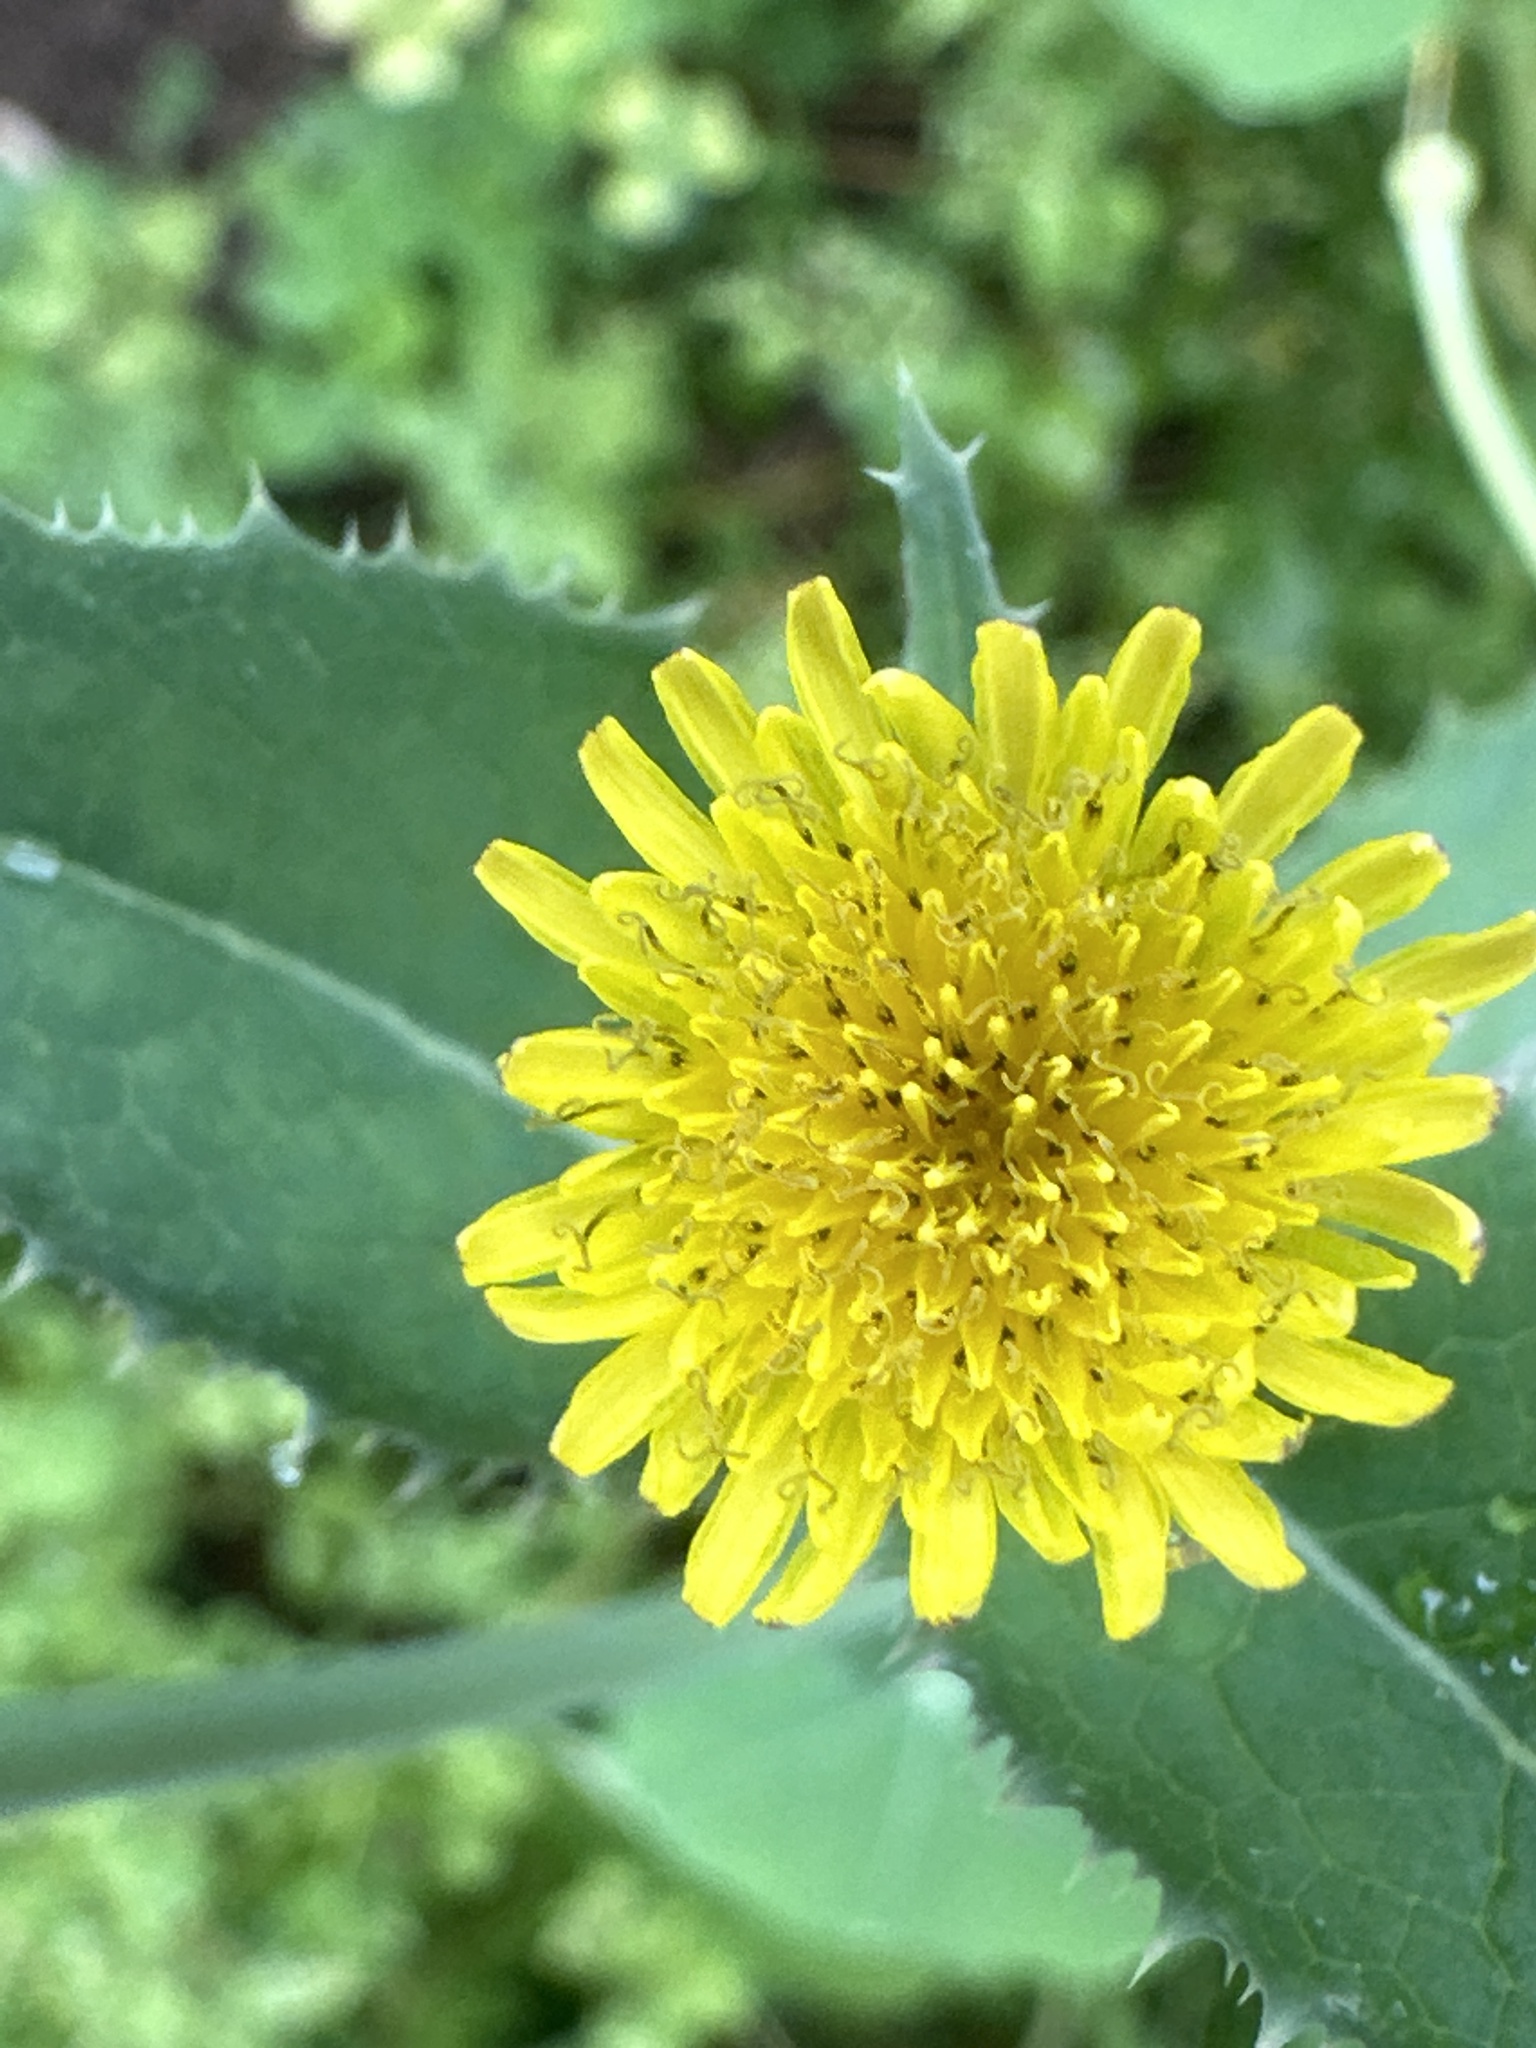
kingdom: Plantae
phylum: Tracheophyta
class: Magnoliopsida
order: Asterales
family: Asteraceae
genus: Sonchus
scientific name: Sonchus asper
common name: Prickly sow-thistle
